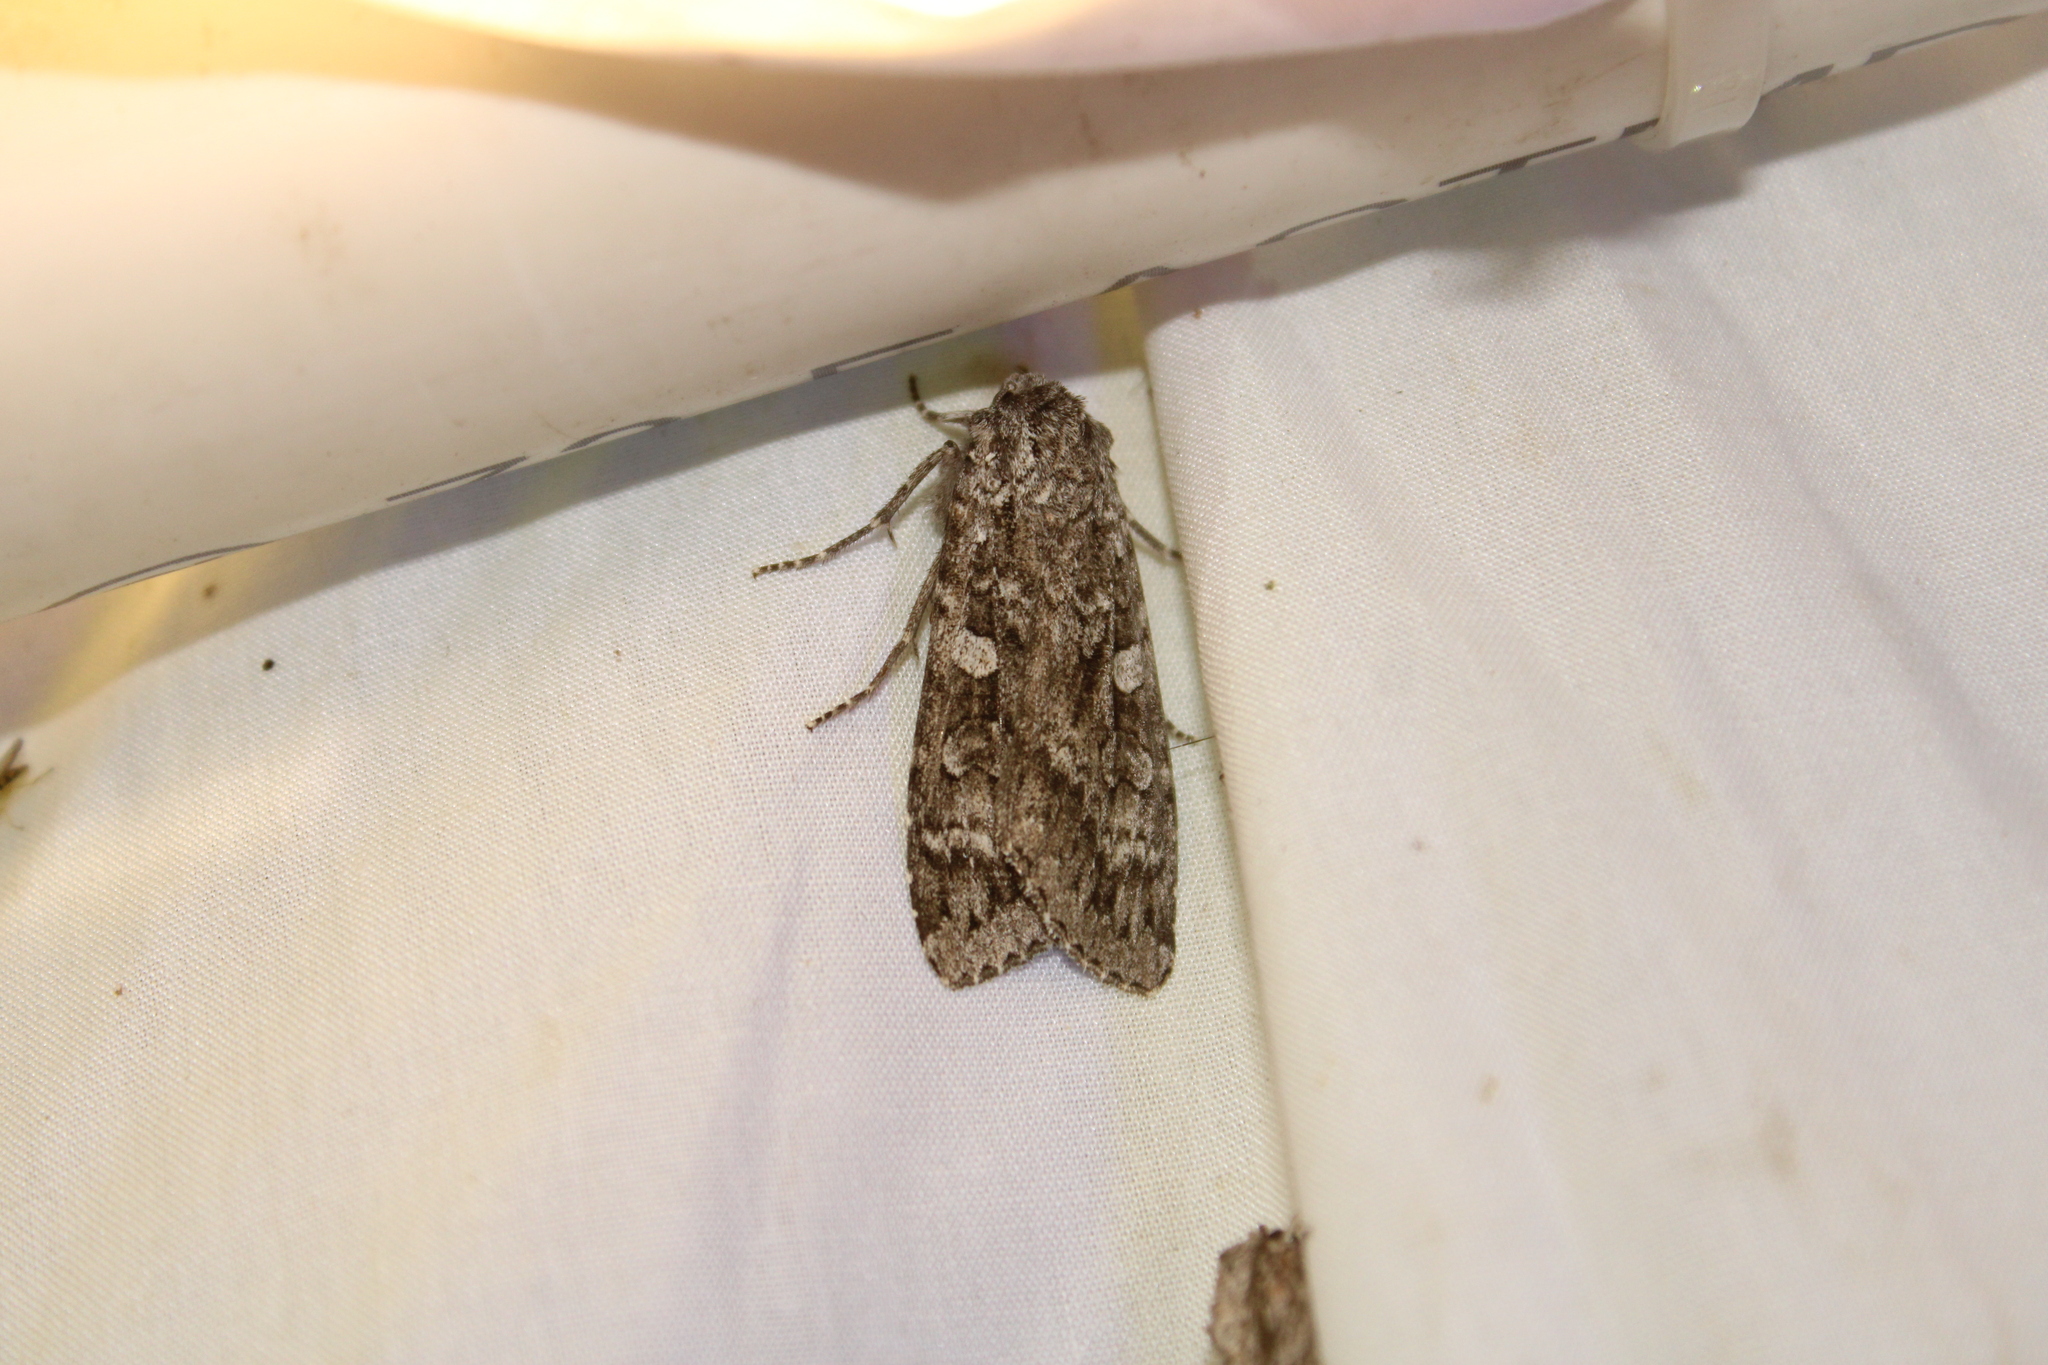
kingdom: Animalia
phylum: Arthropoda
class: Insecta
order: Lepidoptera
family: Noctuidae
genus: Eurois
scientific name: Eurois occulta
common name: Great brocade
